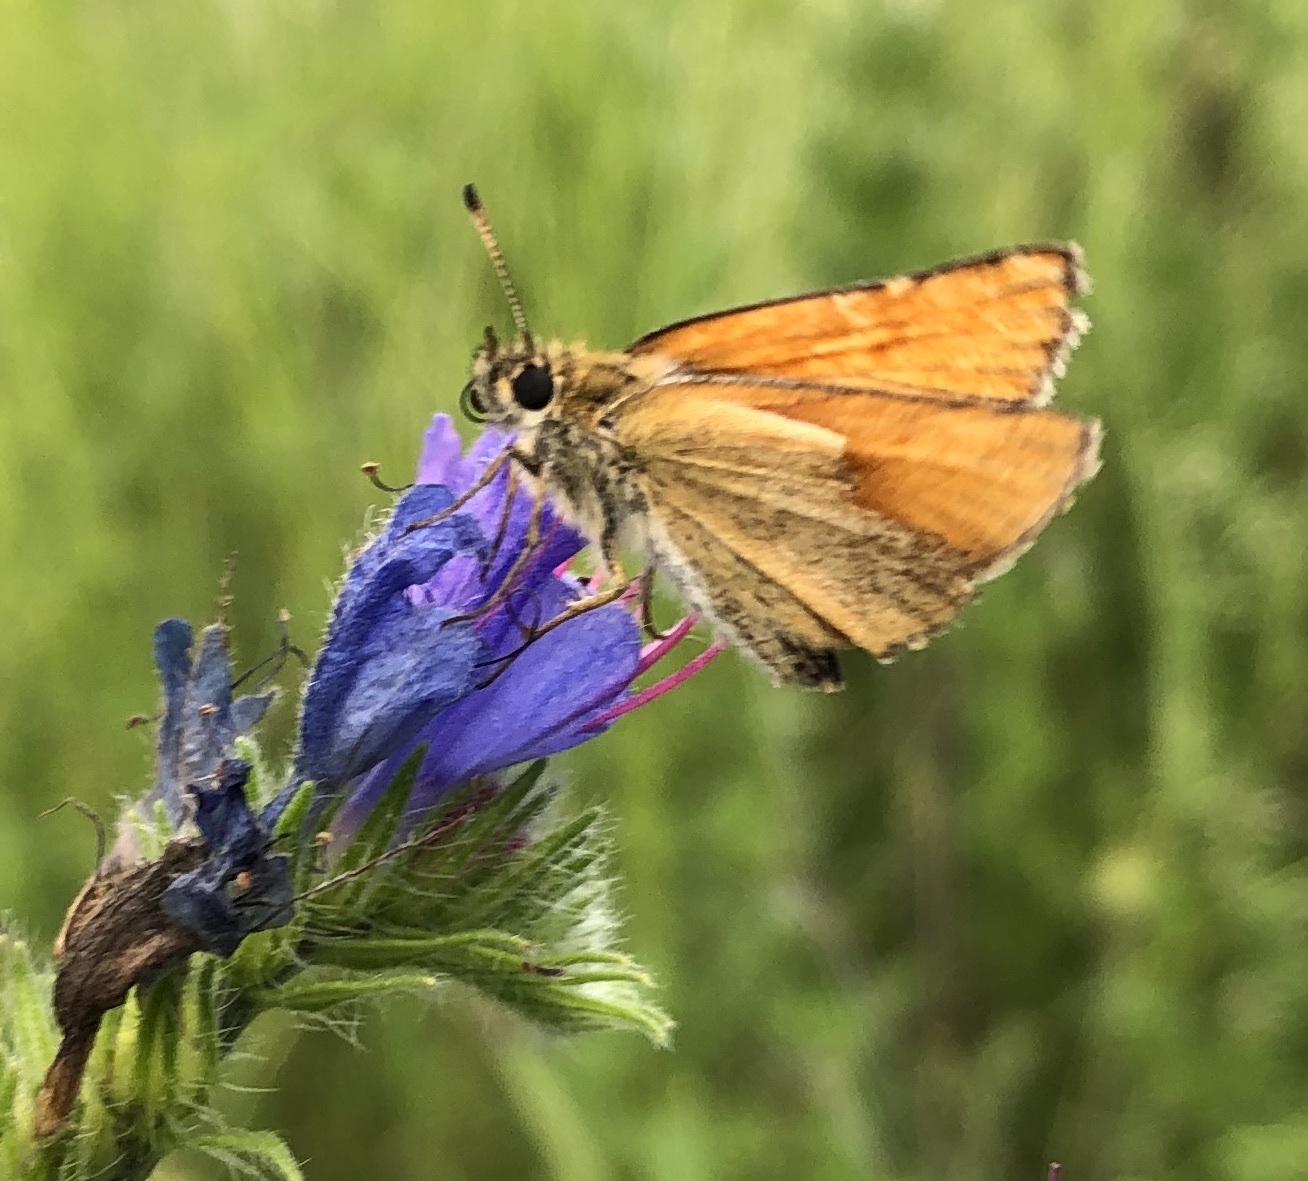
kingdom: Animalia
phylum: Arthropoda
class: Insecta
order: Lepidoptera
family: Hesperiidae
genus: Thymelicus
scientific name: Thymelicus lineola
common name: Essex skipper
